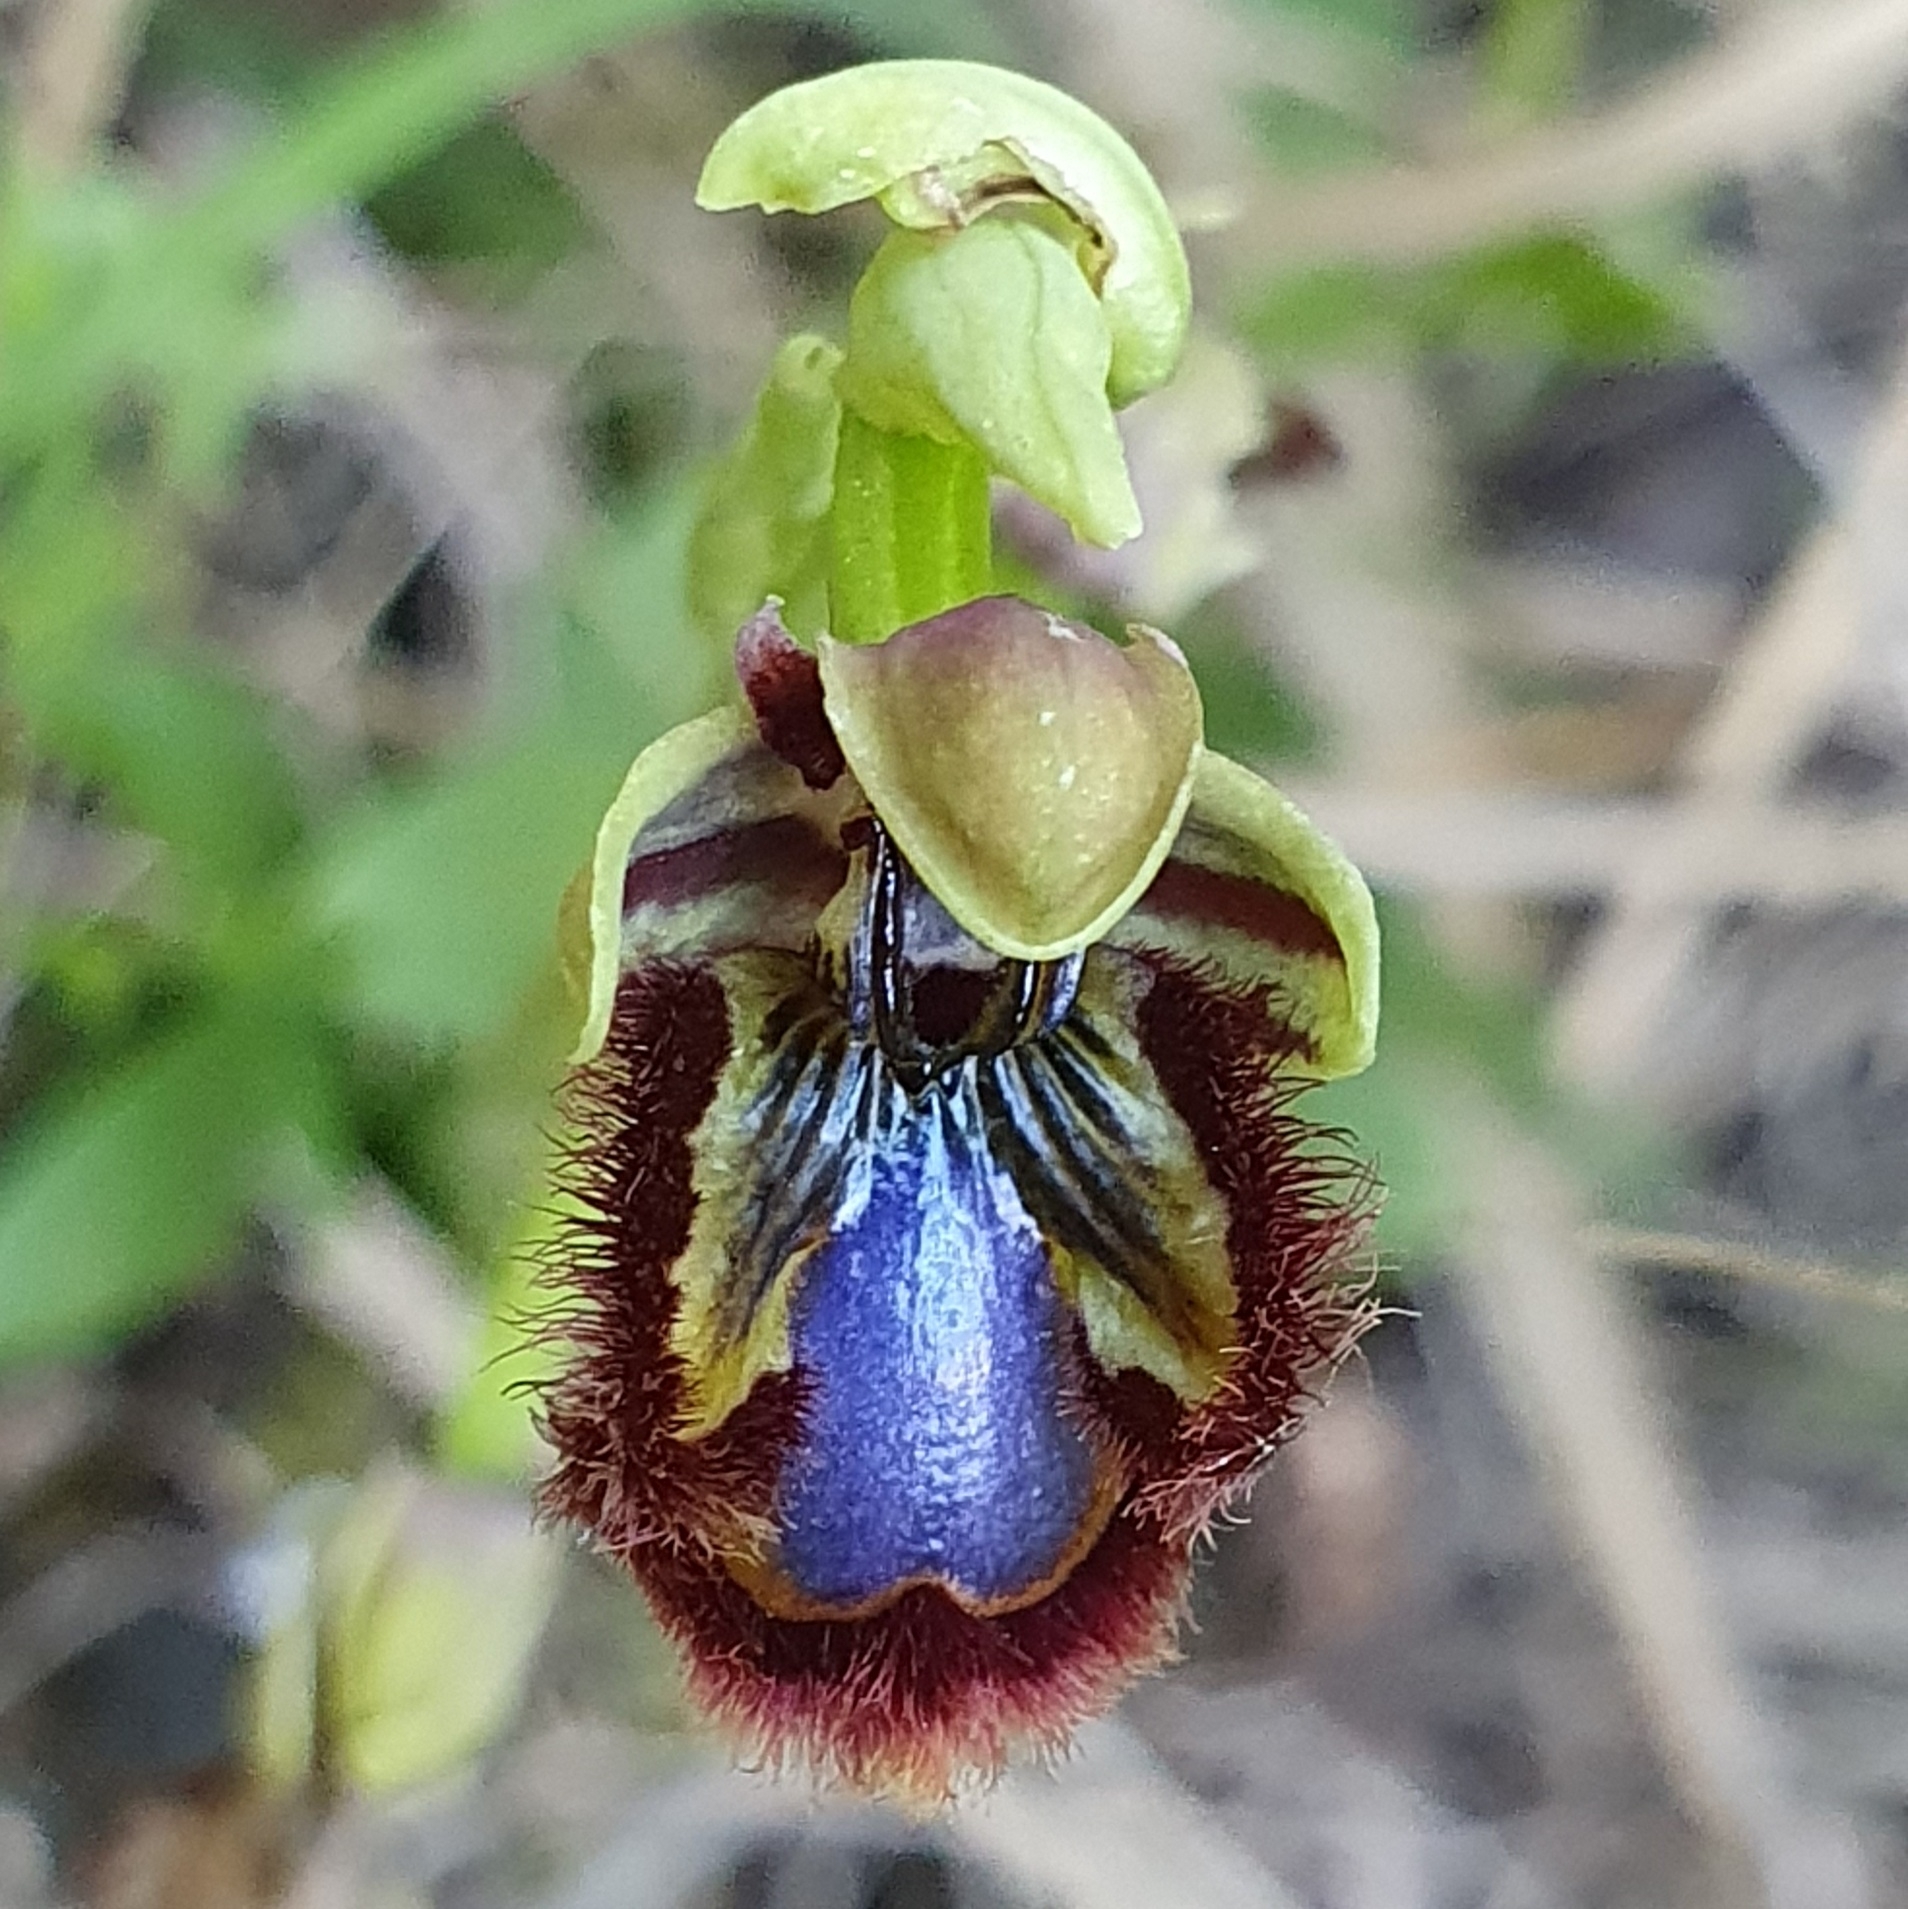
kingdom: Plantae
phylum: Tracheophyta
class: Liliopsida
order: Asparagales
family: Orchidaceae
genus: Ophrys
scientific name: Ophrys speculum
